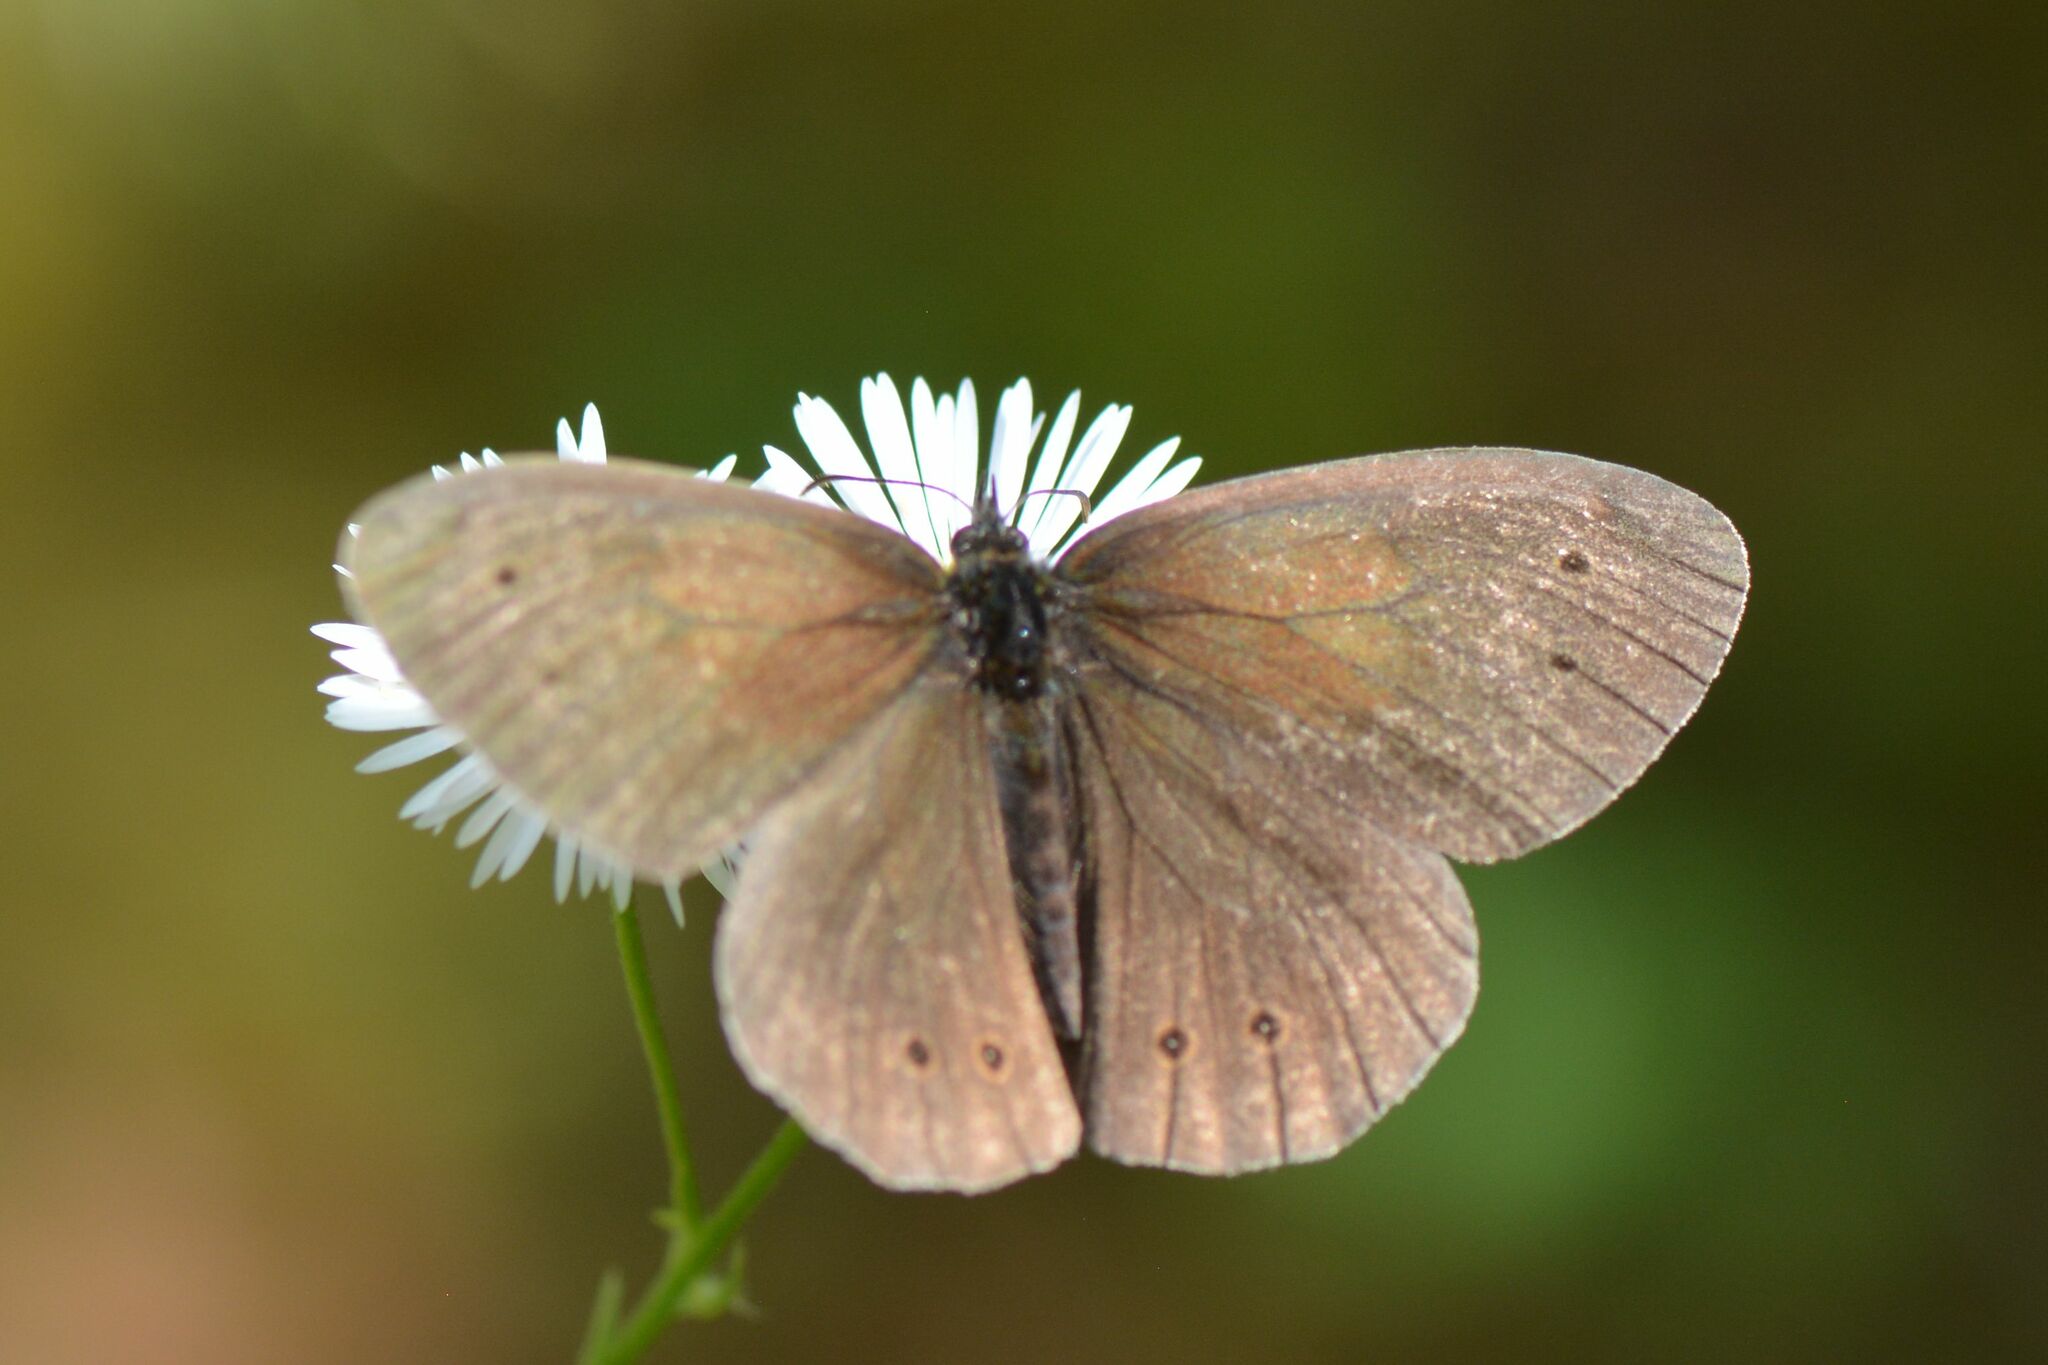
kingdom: Animalia
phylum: Arthropoda
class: Insecta
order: Lepidoptera
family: Nymphalidae
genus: Aphantopus
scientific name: Aphantopus hyperantus
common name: Ringlet
